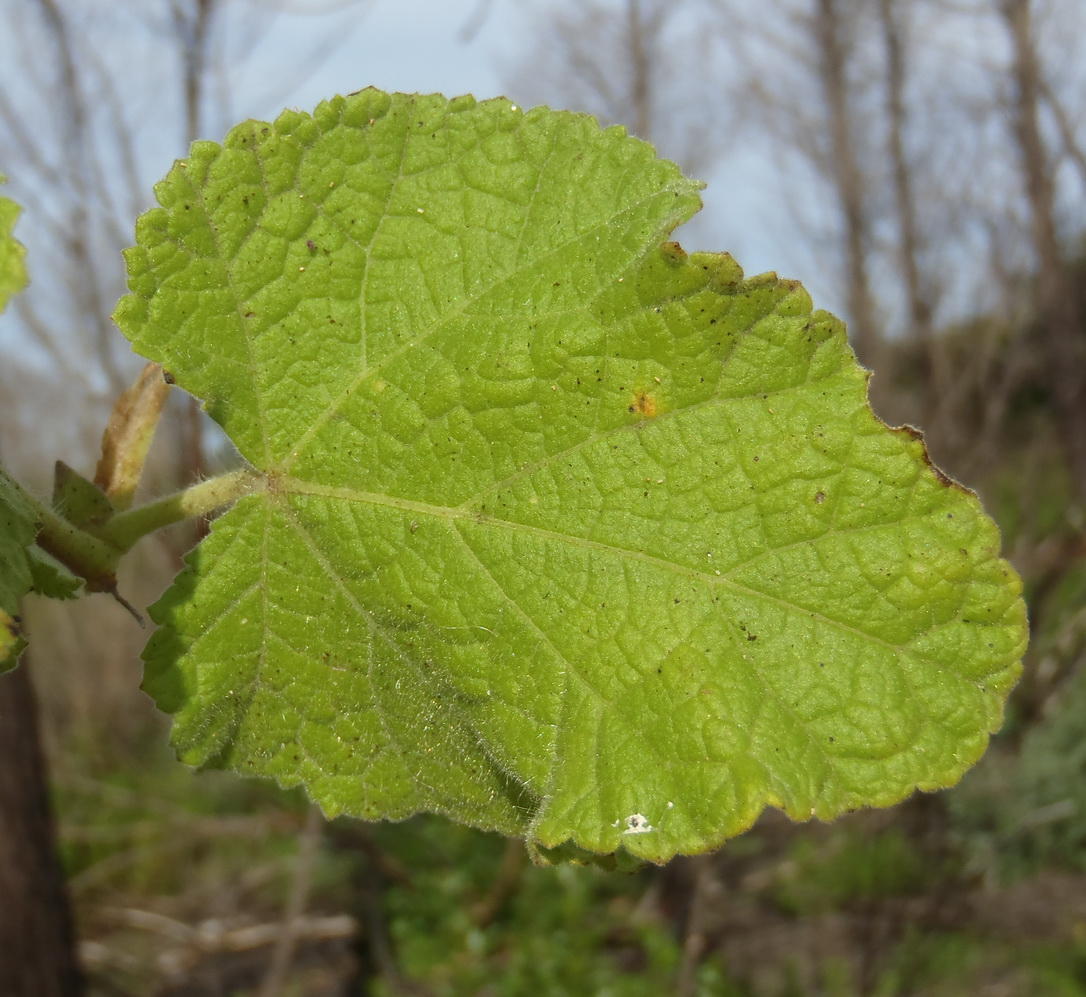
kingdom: Plantae
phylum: Tracheophyta
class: Magnoliopsida
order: Malvales
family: Malvaceae
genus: Anisodontea
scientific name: Anisodontea scabrosa
